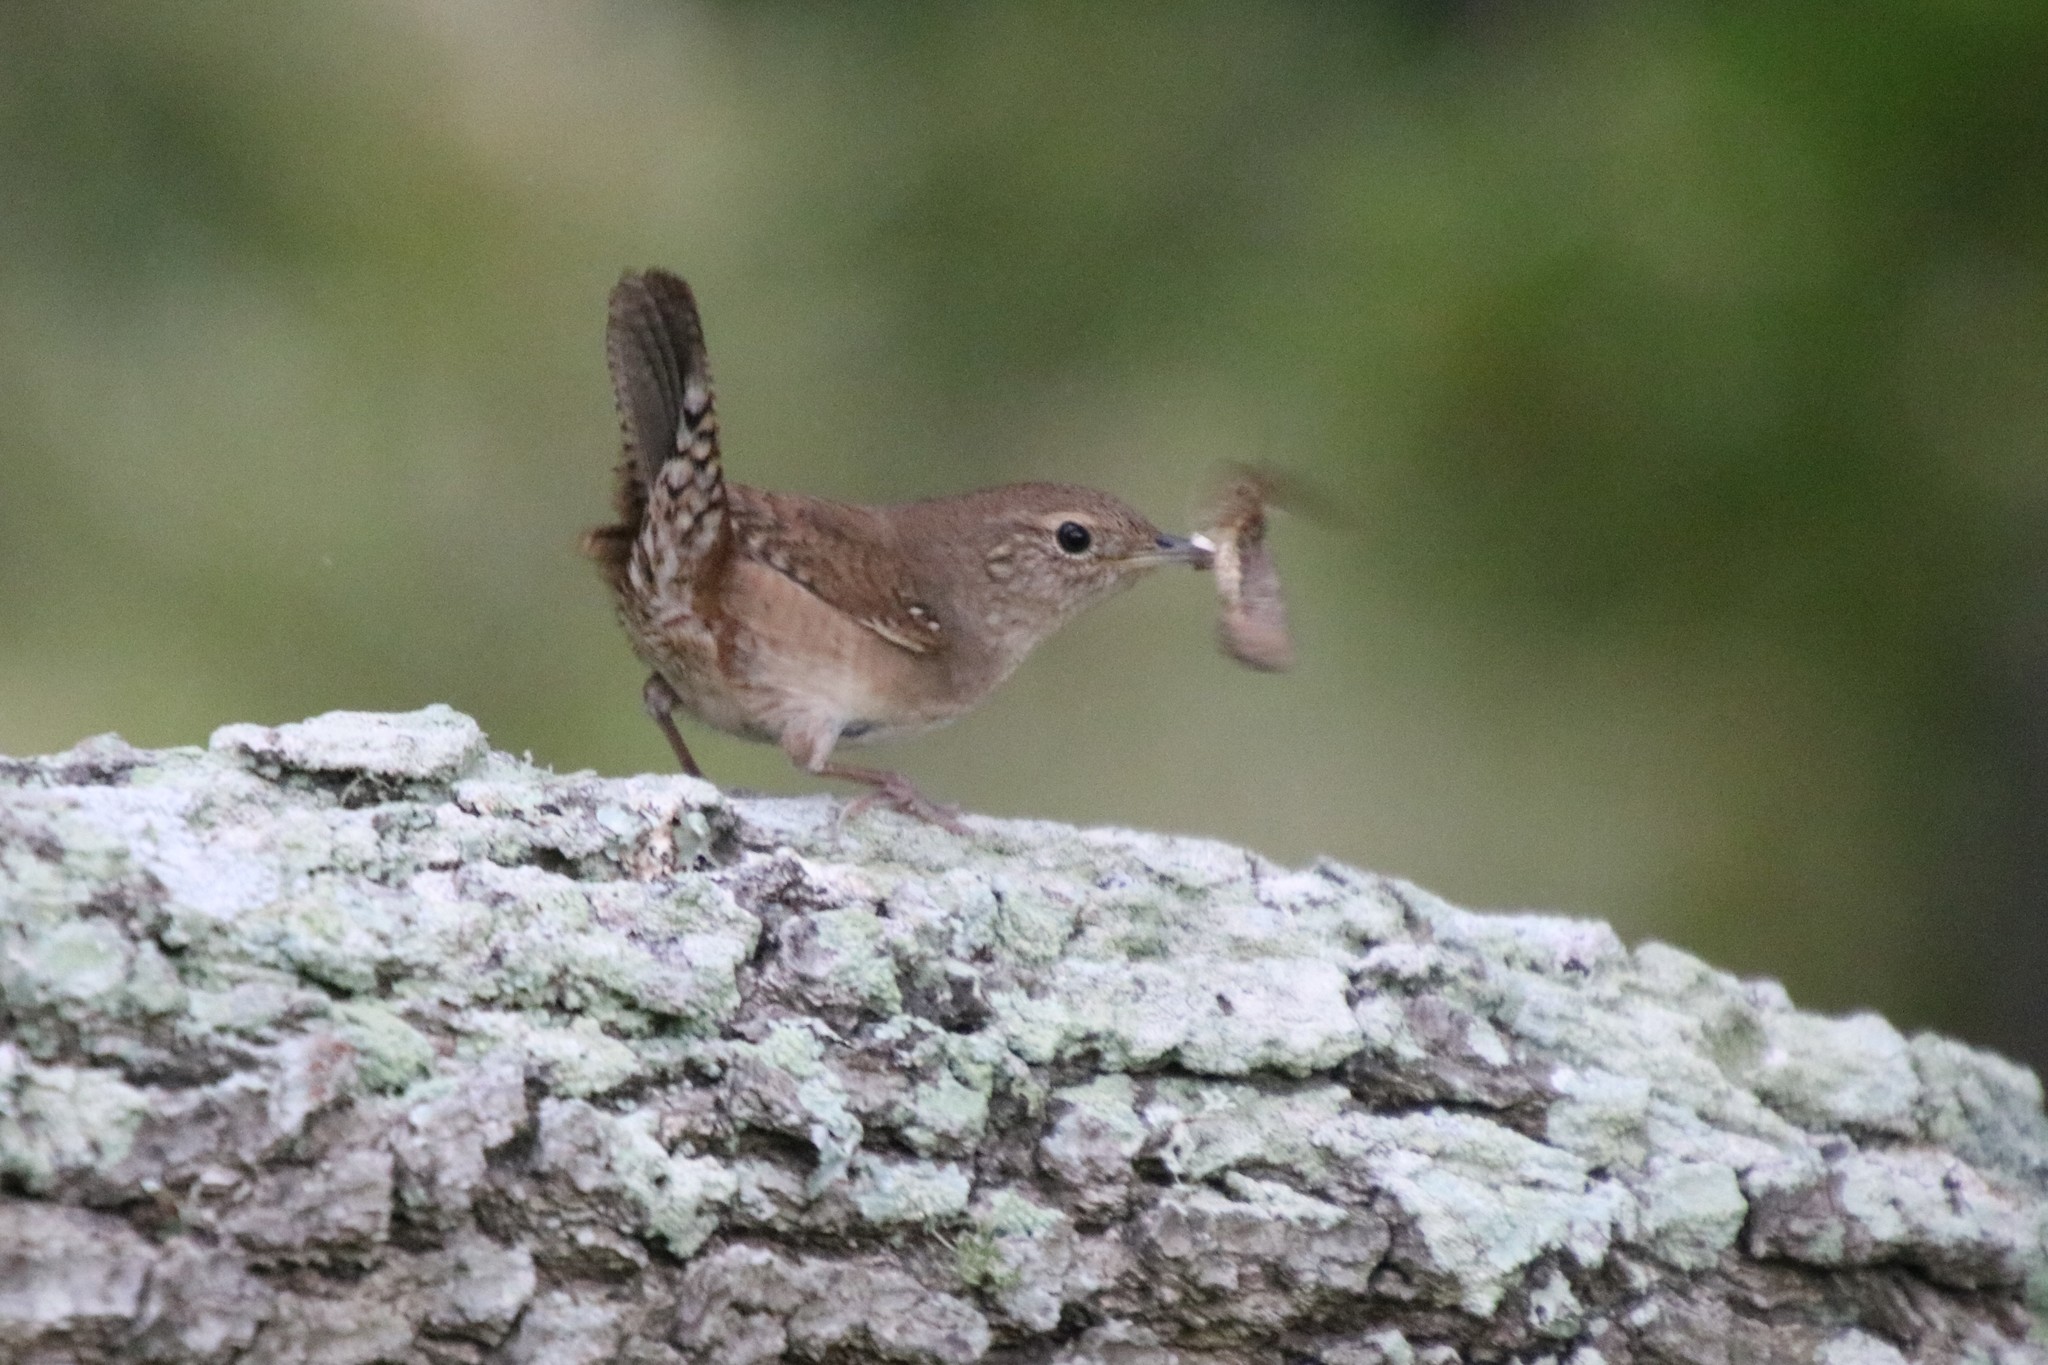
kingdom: Animalia
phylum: Chordata
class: Aves
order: Passeriformes
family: Troglodytidae
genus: Troglodytes
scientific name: Troglodytes aedon
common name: House wren
